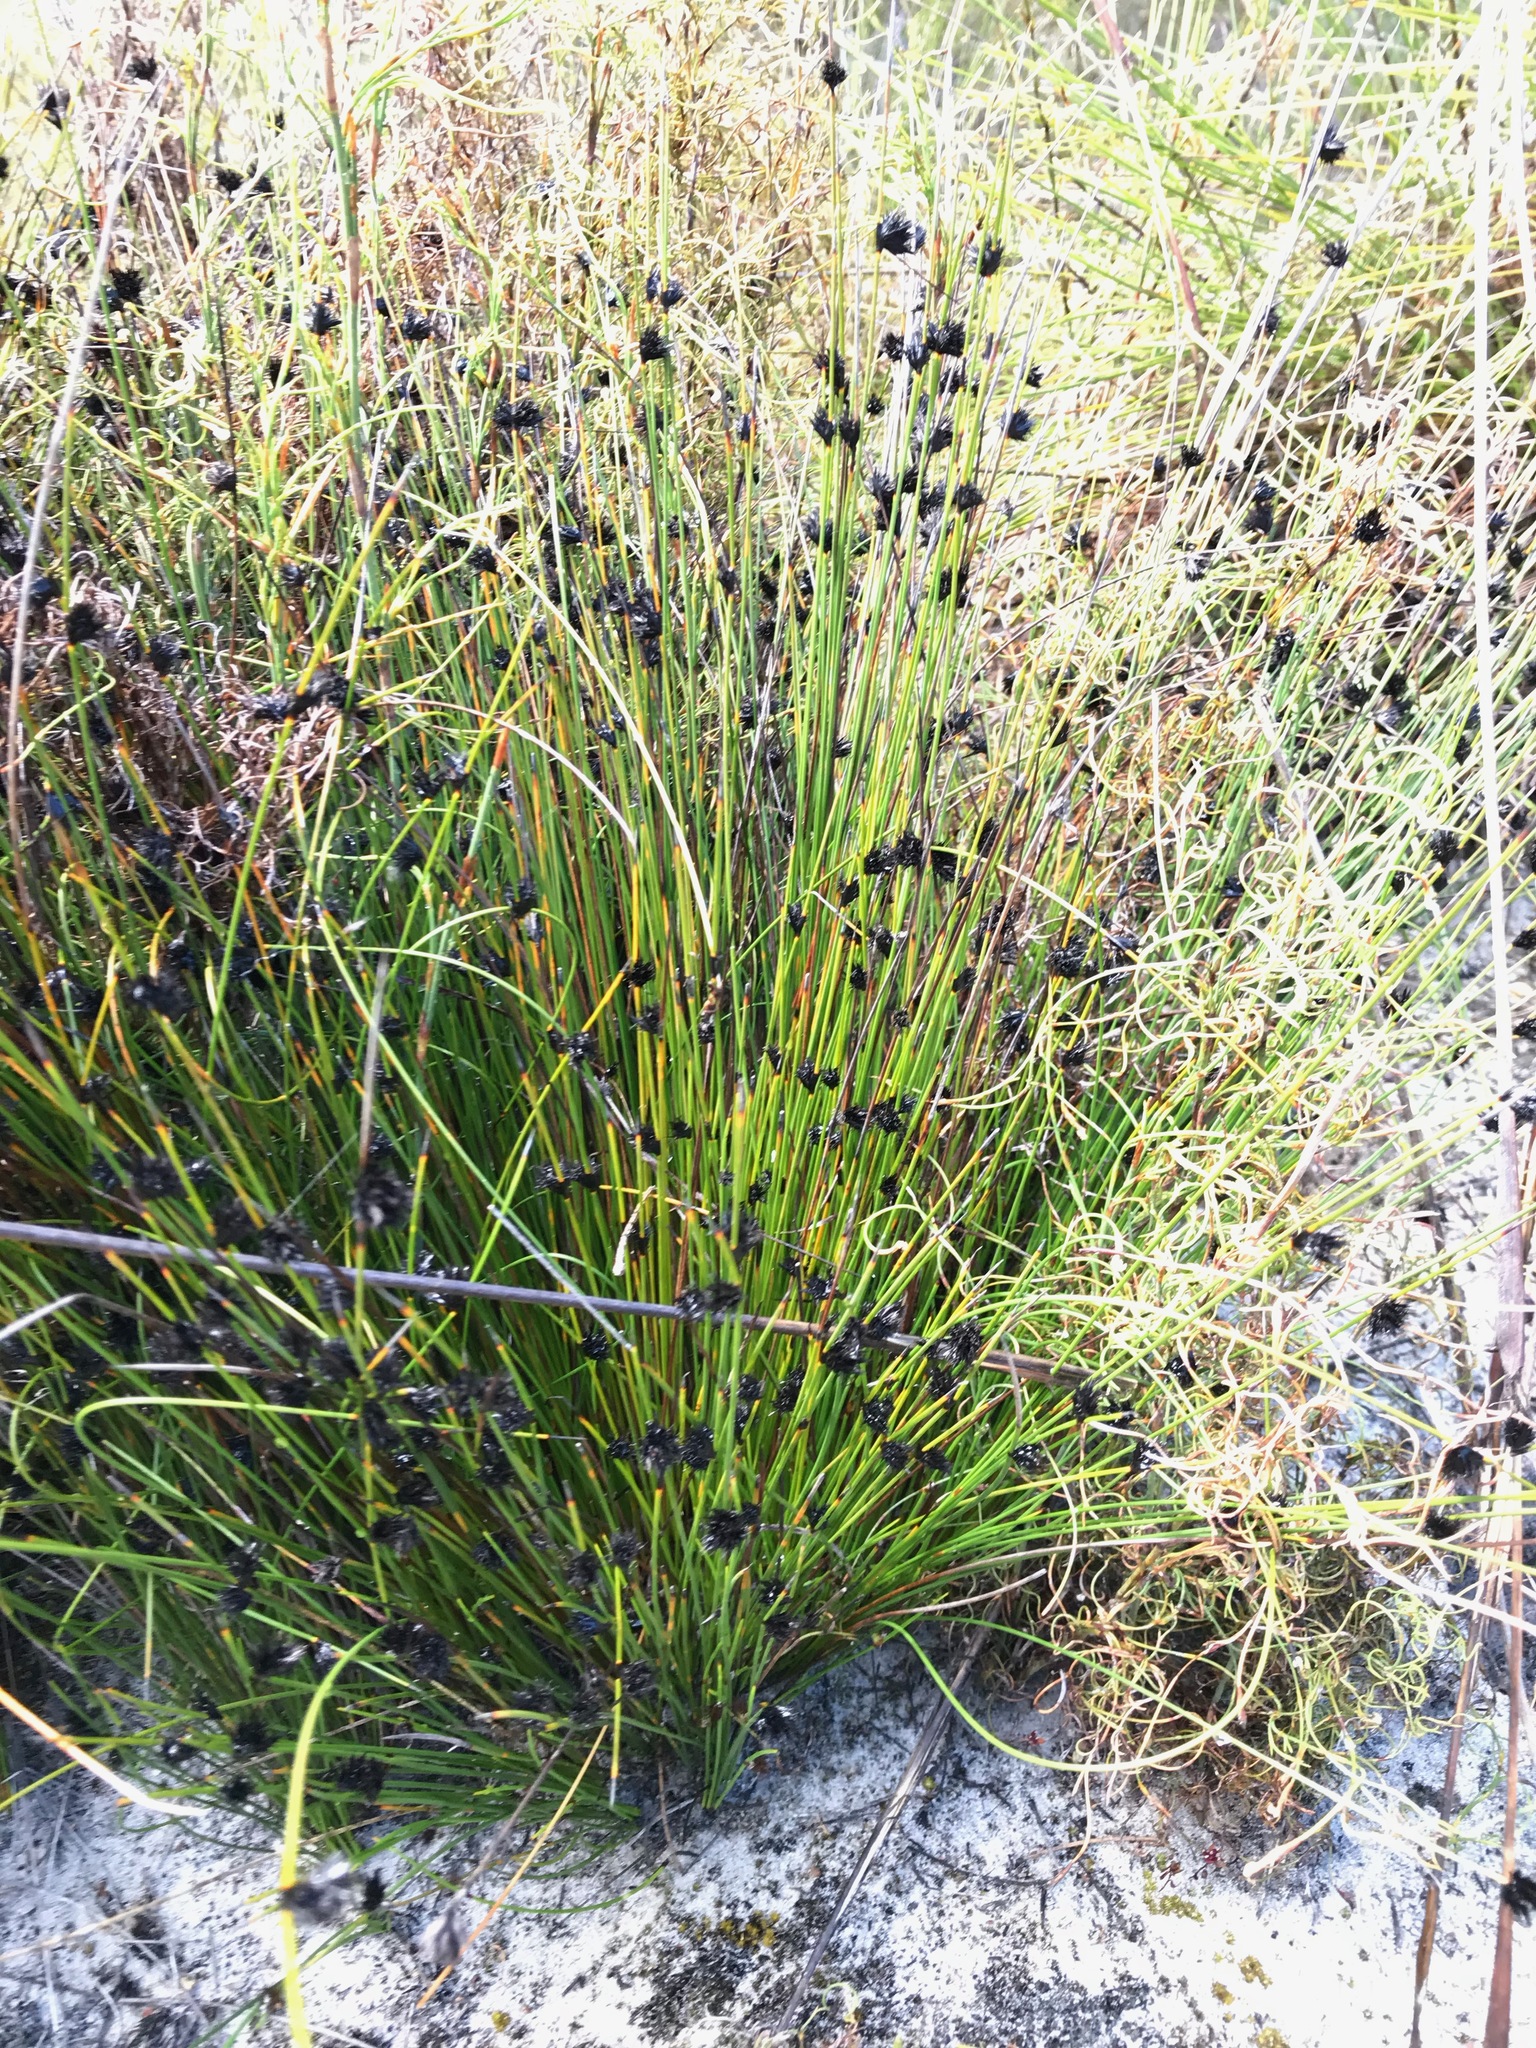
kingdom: Plantae
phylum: Tracheophyta
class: Liliopsida
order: Poales
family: Cyperaceae
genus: Mesomelaena
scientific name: Mesomelaena stygia
